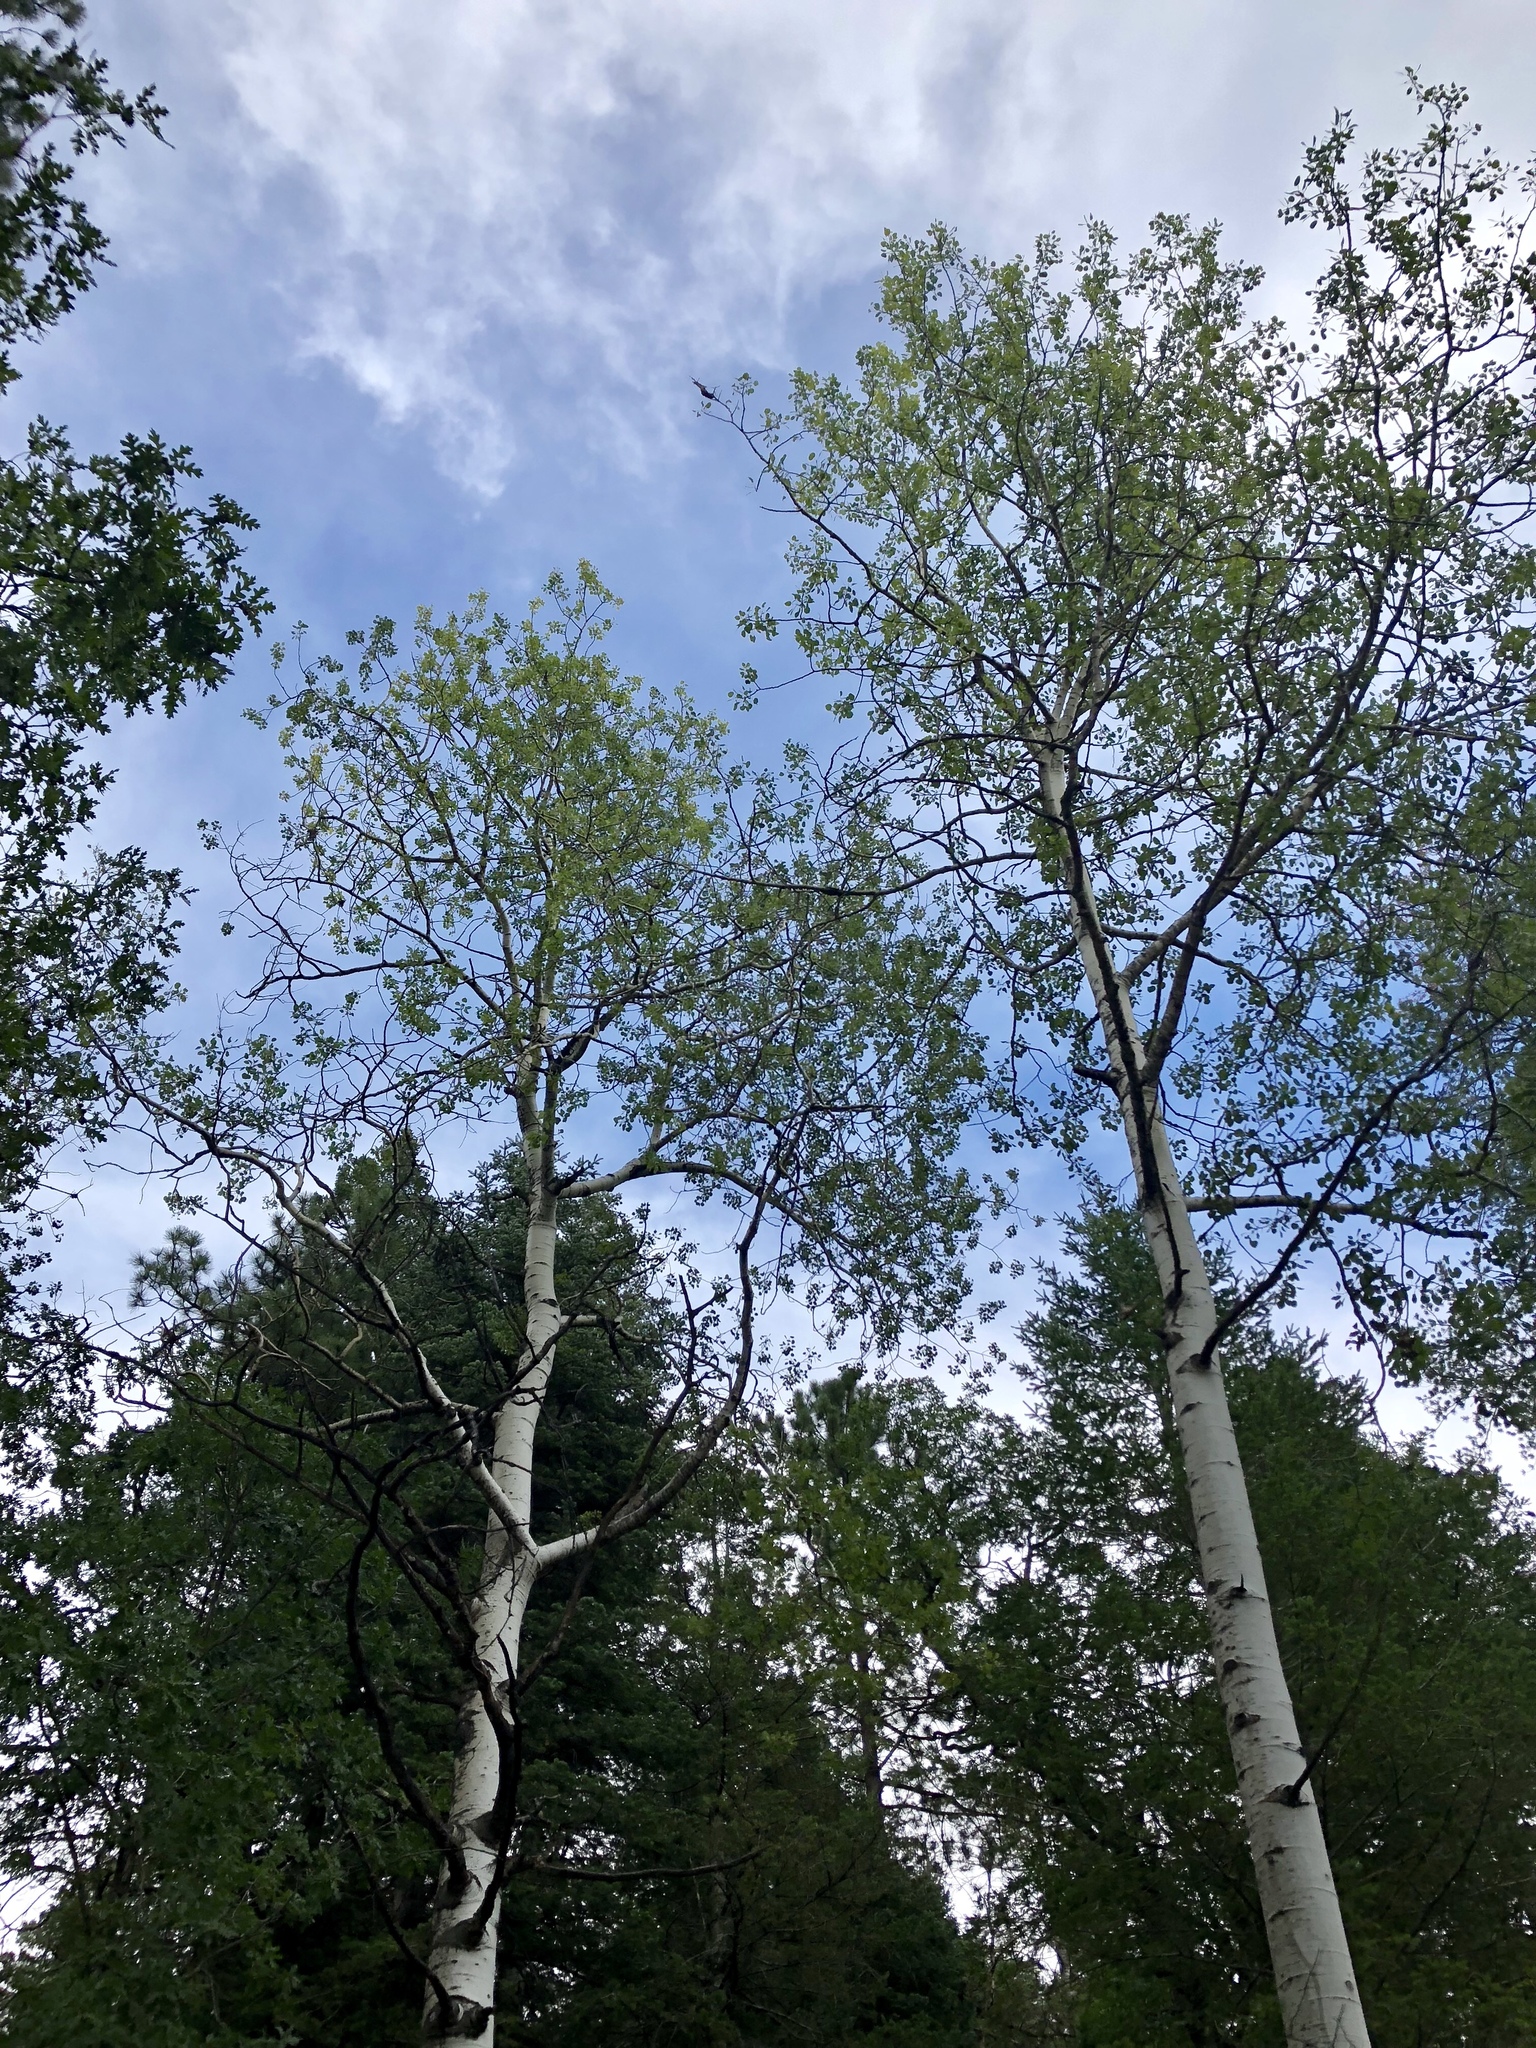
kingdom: Plantae
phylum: Tracheophyta
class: Magnoliopsida
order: Malpighiales
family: Salicaceae
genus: Populus
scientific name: Populus tremuloides
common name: Quaking aspen
